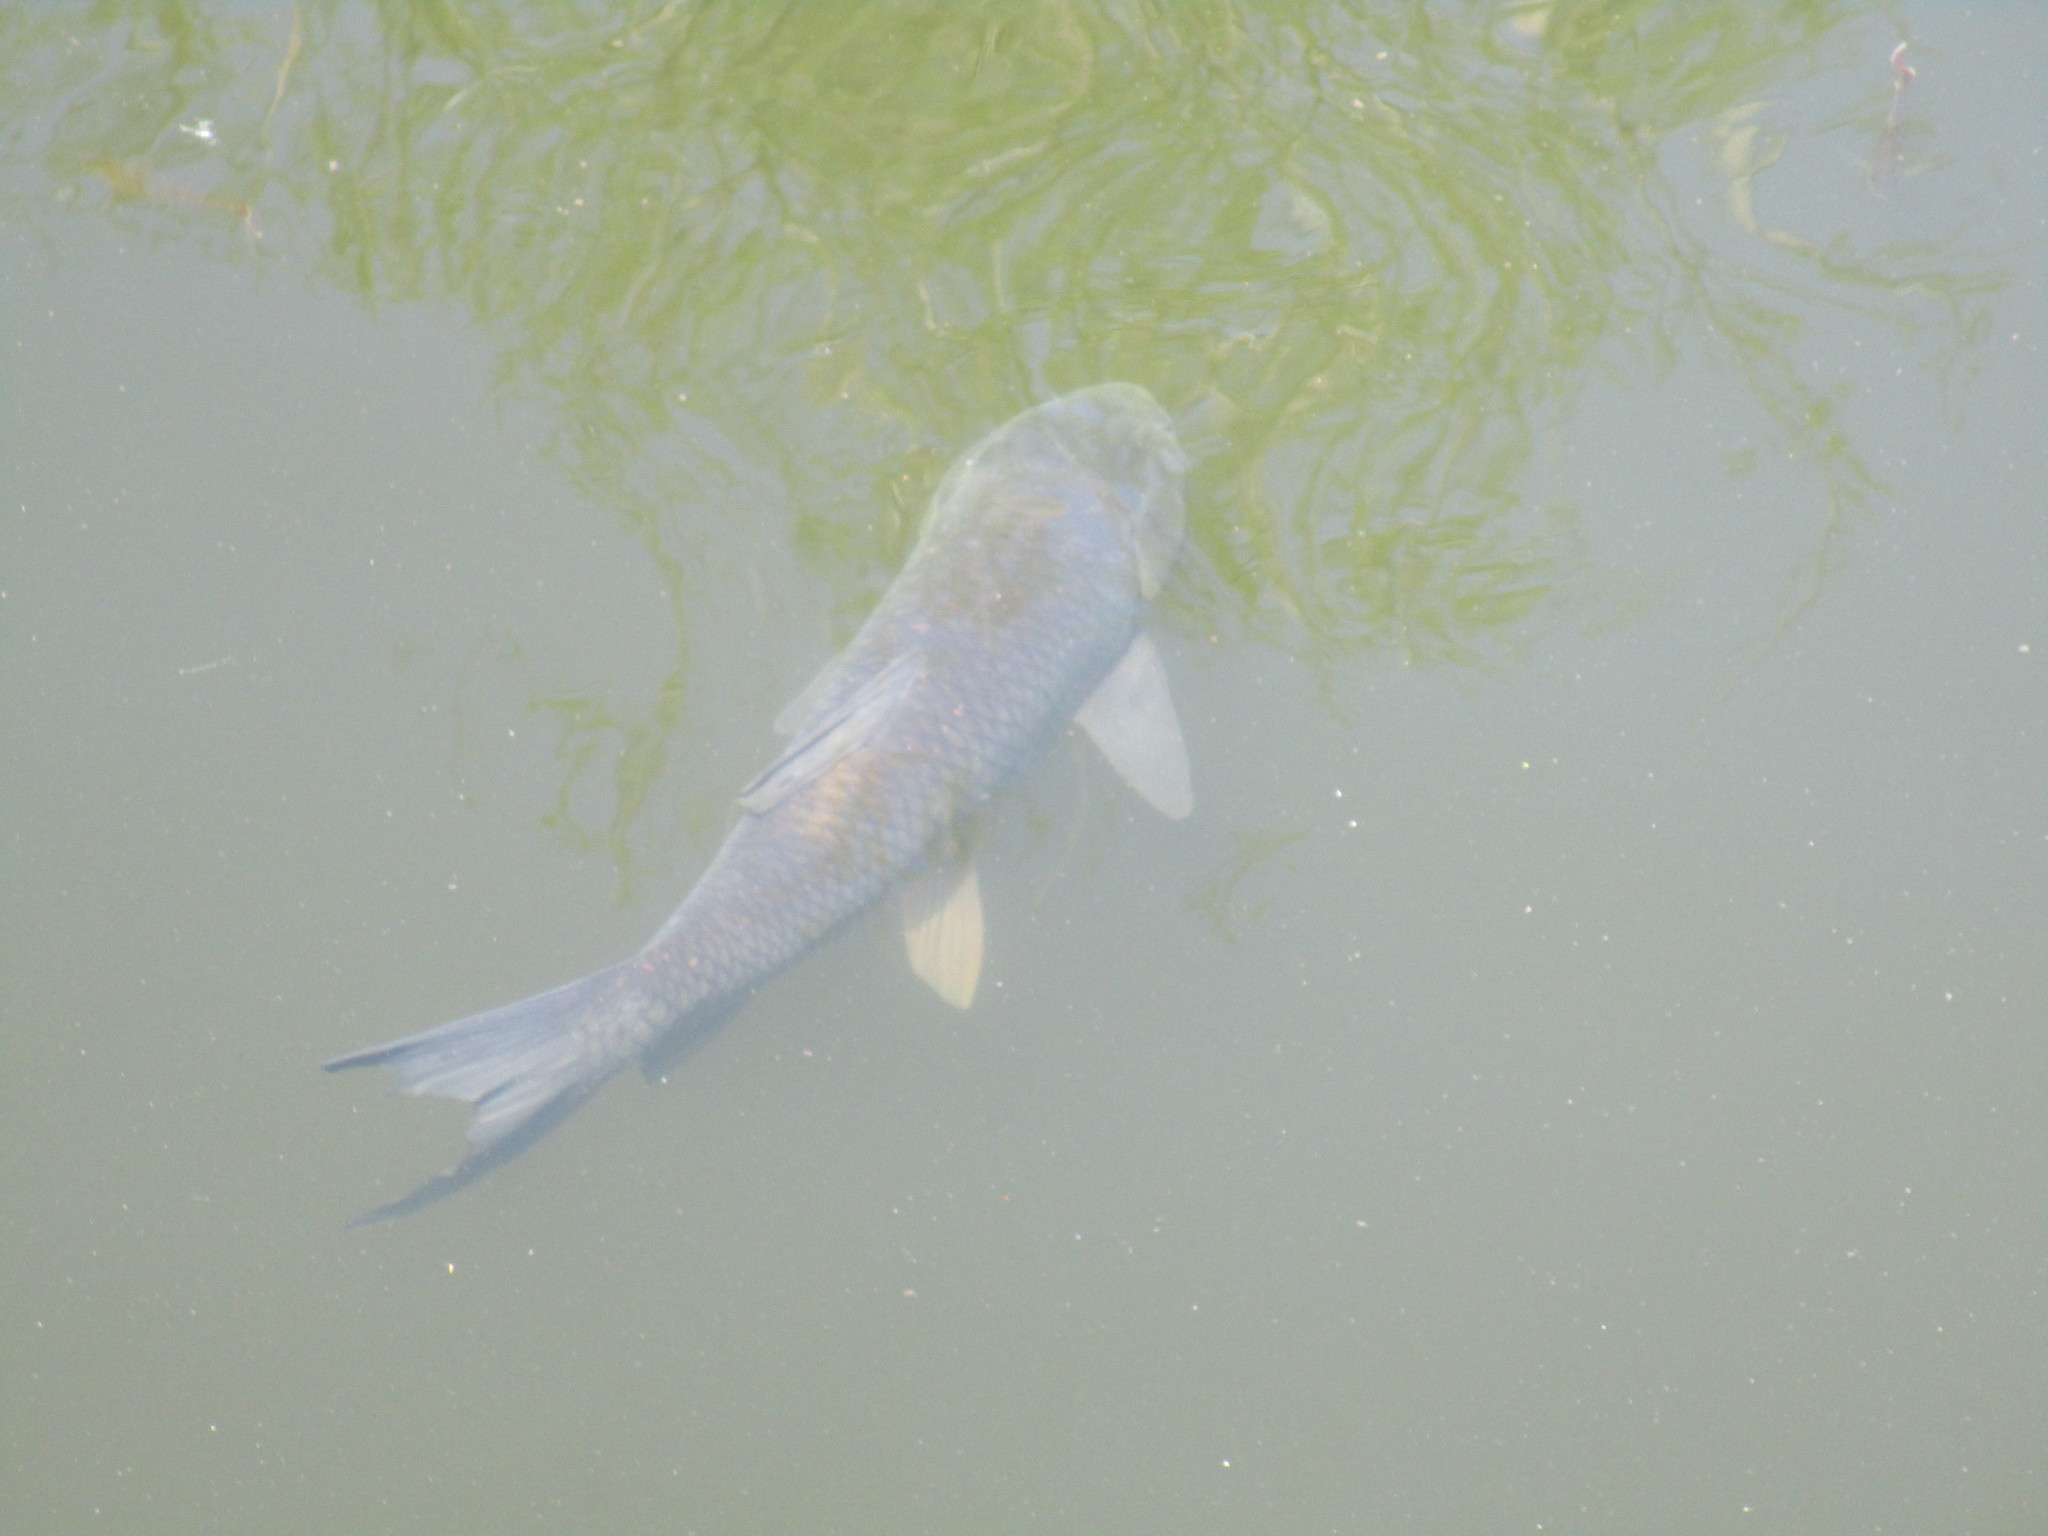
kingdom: Animalia
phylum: Chordata
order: Cypriniformes
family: Cyprinidae
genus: Ctenopharyngodon
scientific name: Ctenopharyngodon idella
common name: Grass carp
